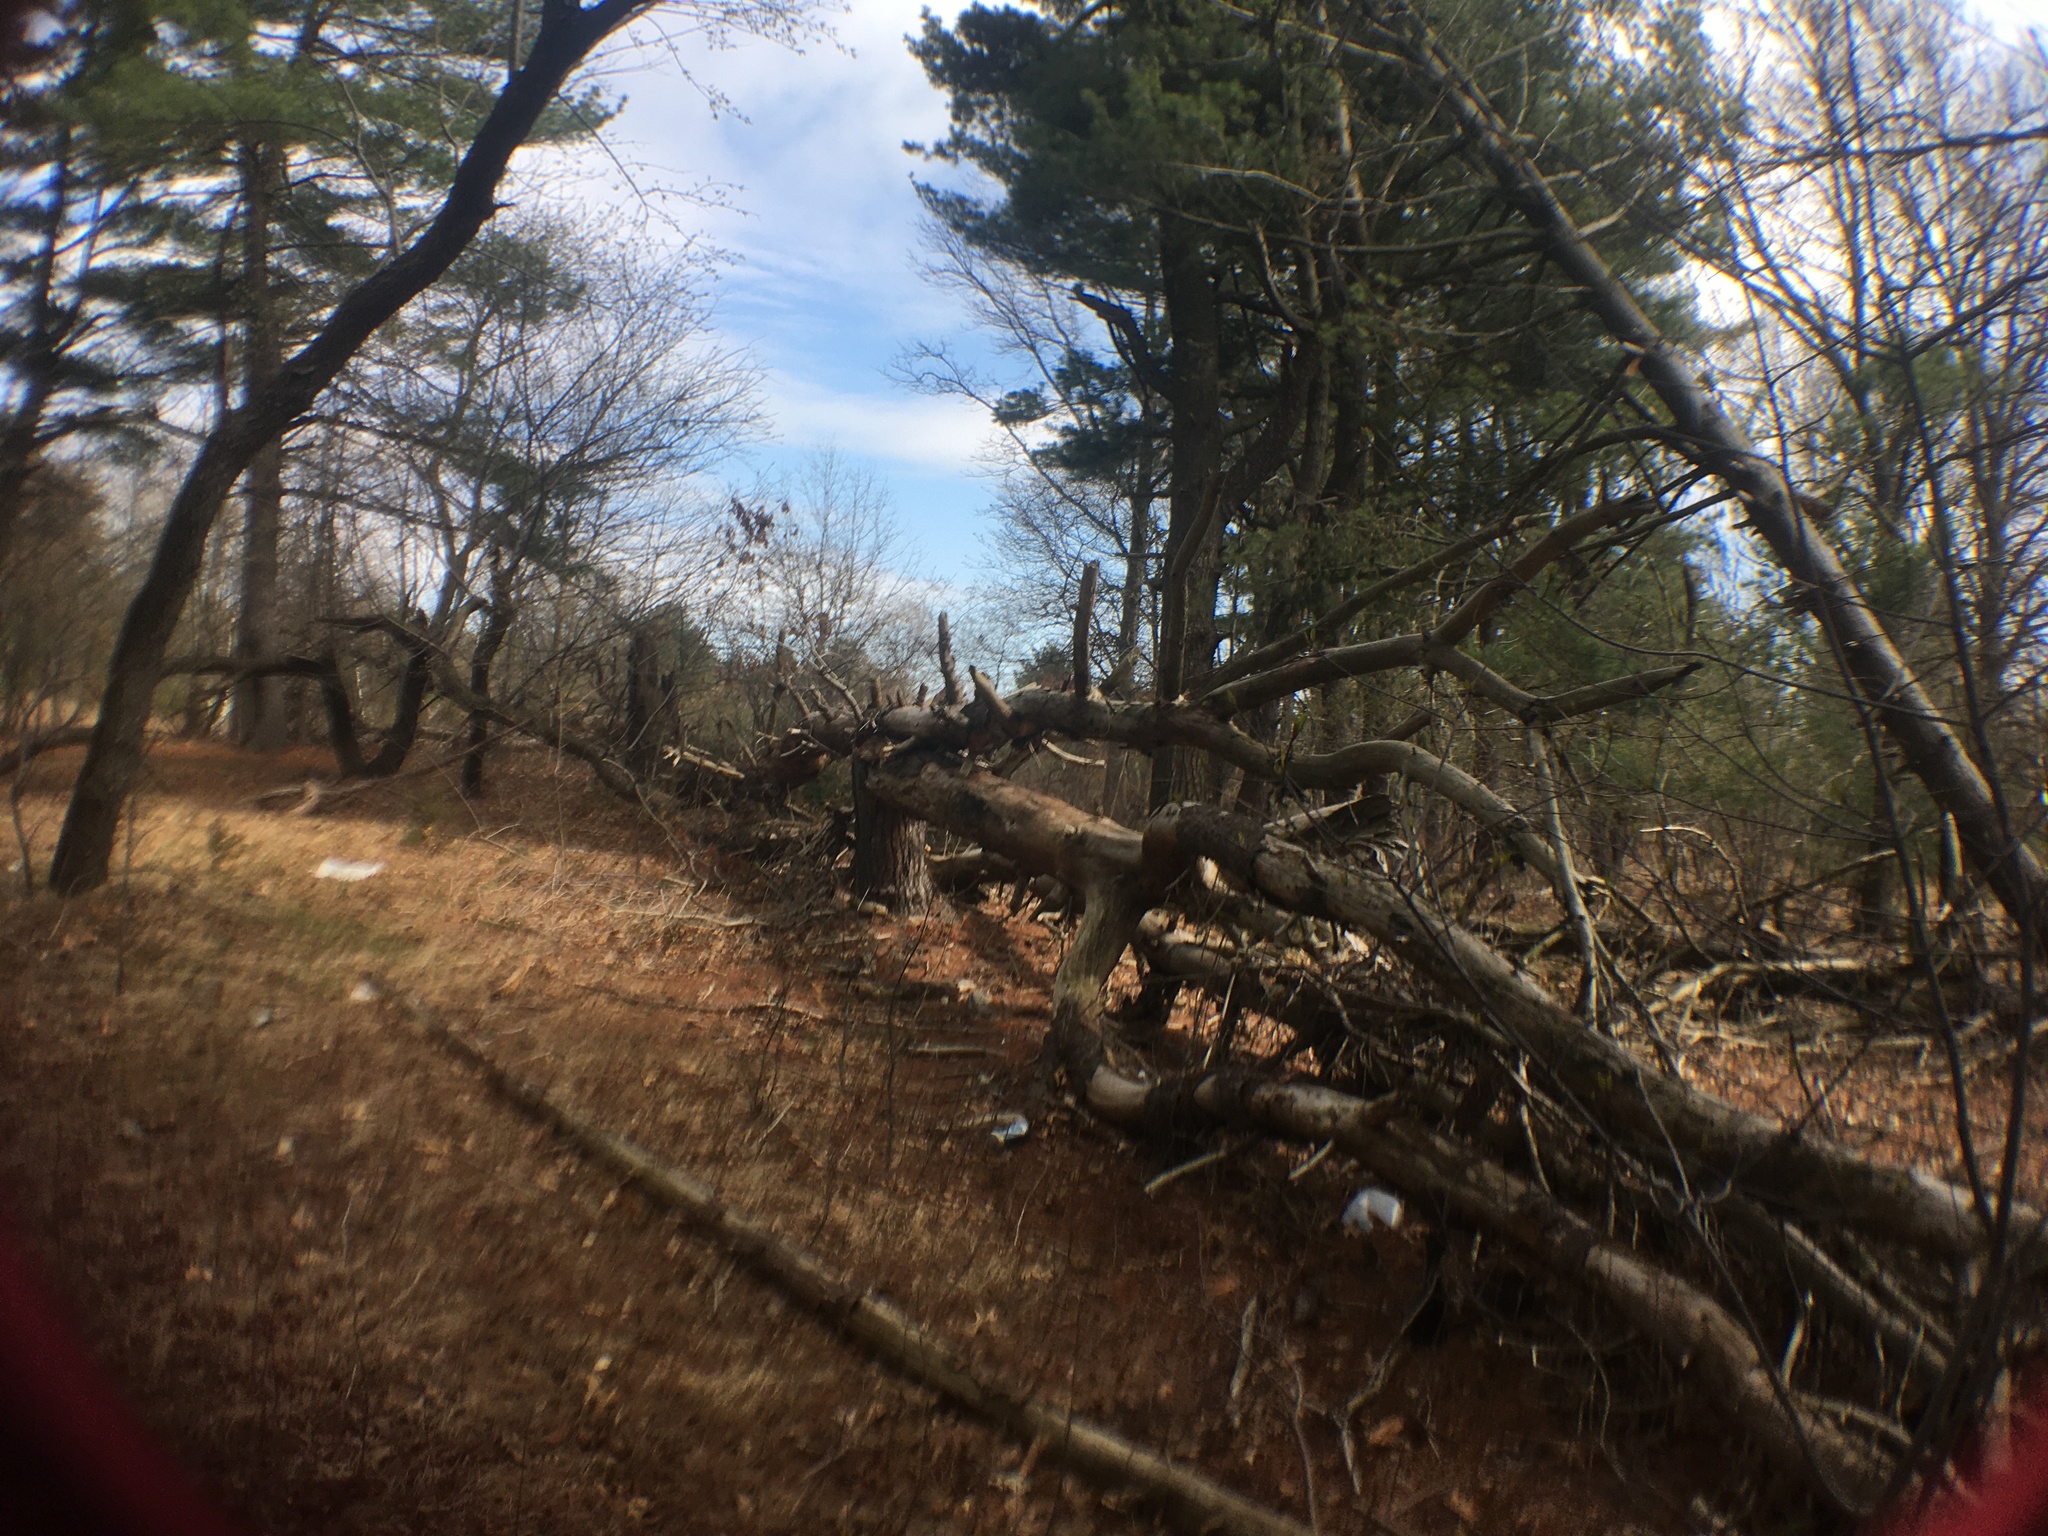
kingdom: Plantae
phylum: Tracheophyta
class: Pinopsida
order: Pinales
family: Pinaceae
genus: Pinus
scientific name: Pinus strobus
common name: Weymouth pine
